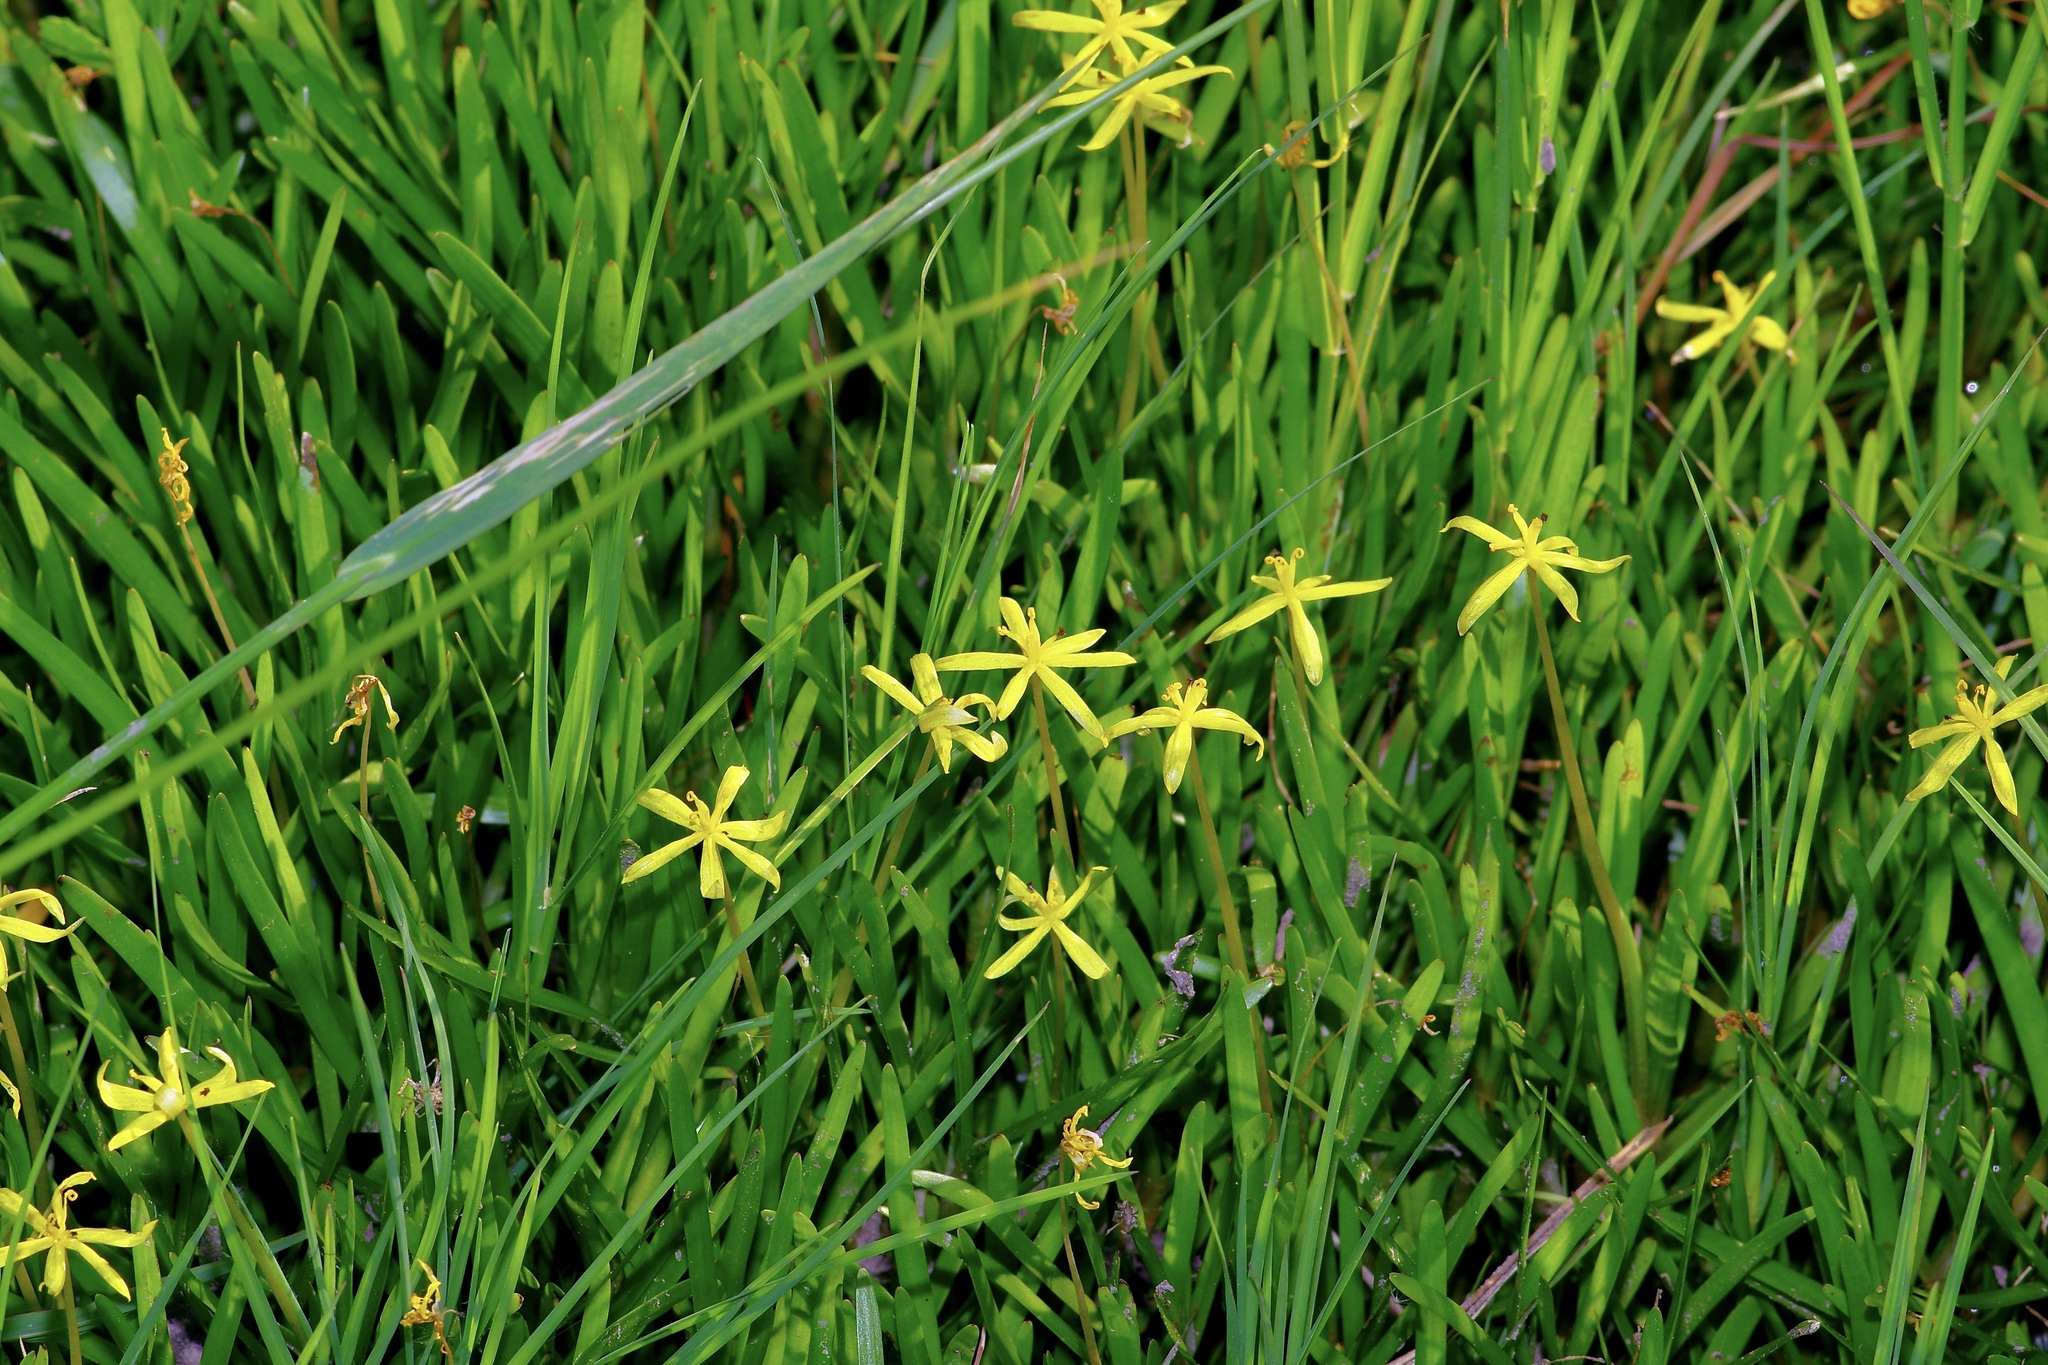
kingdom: Plantae
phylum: Tracheophyta
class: Liliopsida
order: Commelinales
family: Pontederiaceae
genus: Heteranthera
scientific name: Heteranthera dubia
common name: Grass-leaved mud plantain
